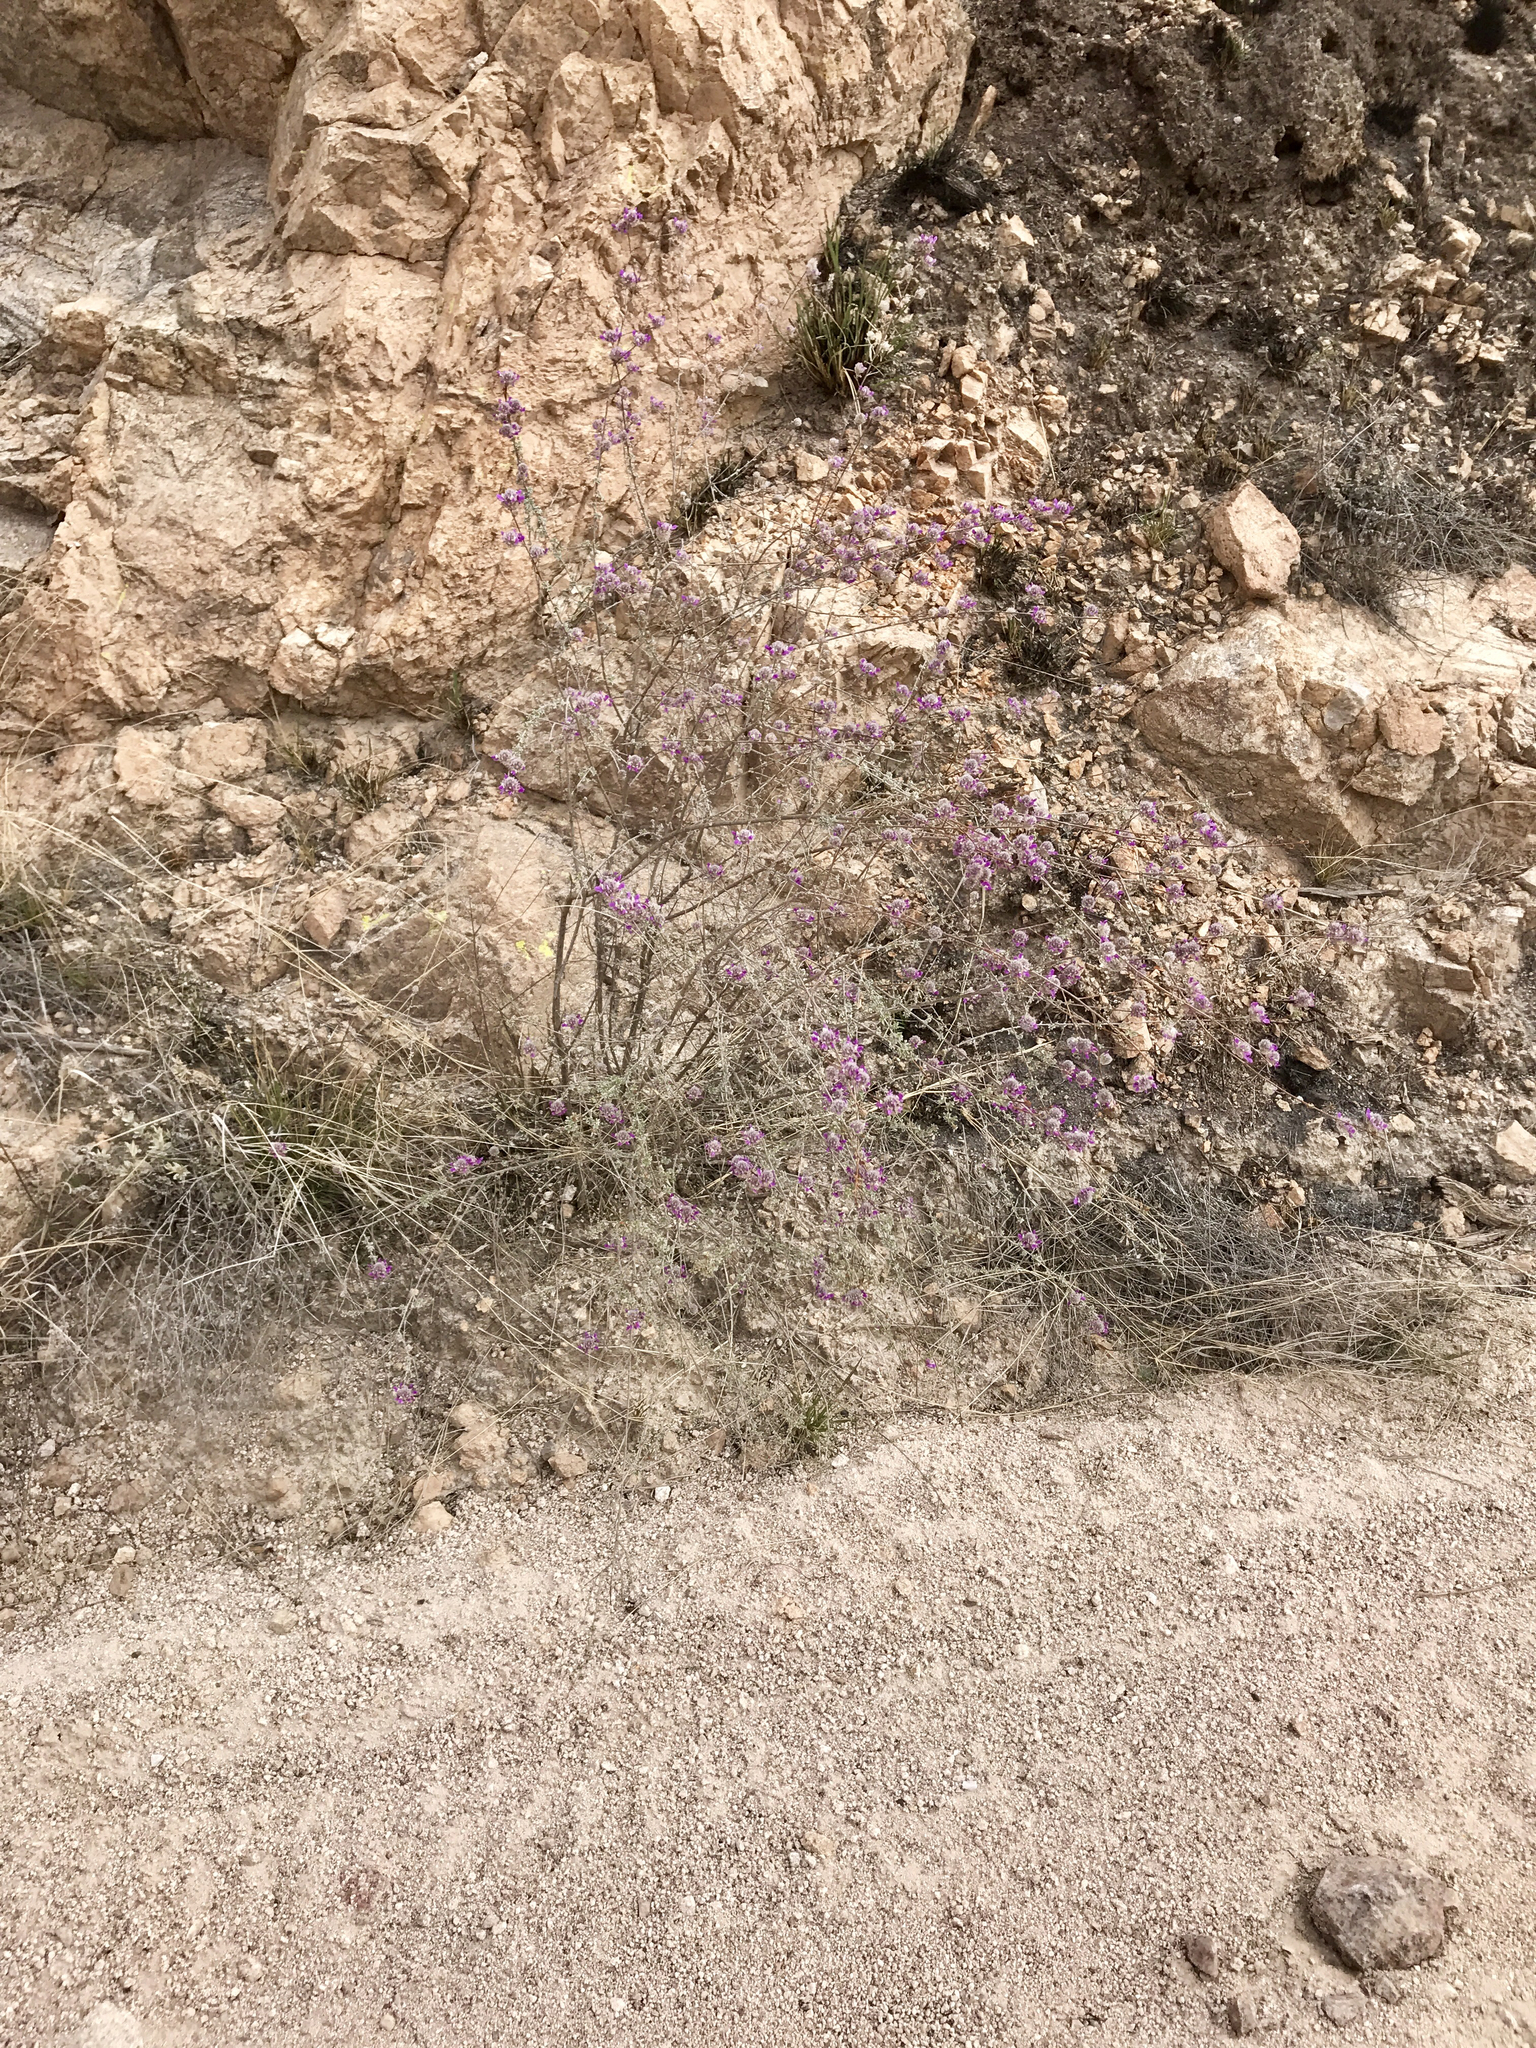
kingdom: Plantae
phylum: Tracheophyta
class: Magnoliopsida
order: Fabales
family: Fabaceae
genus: Dalea
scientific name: Dalea pulchra
